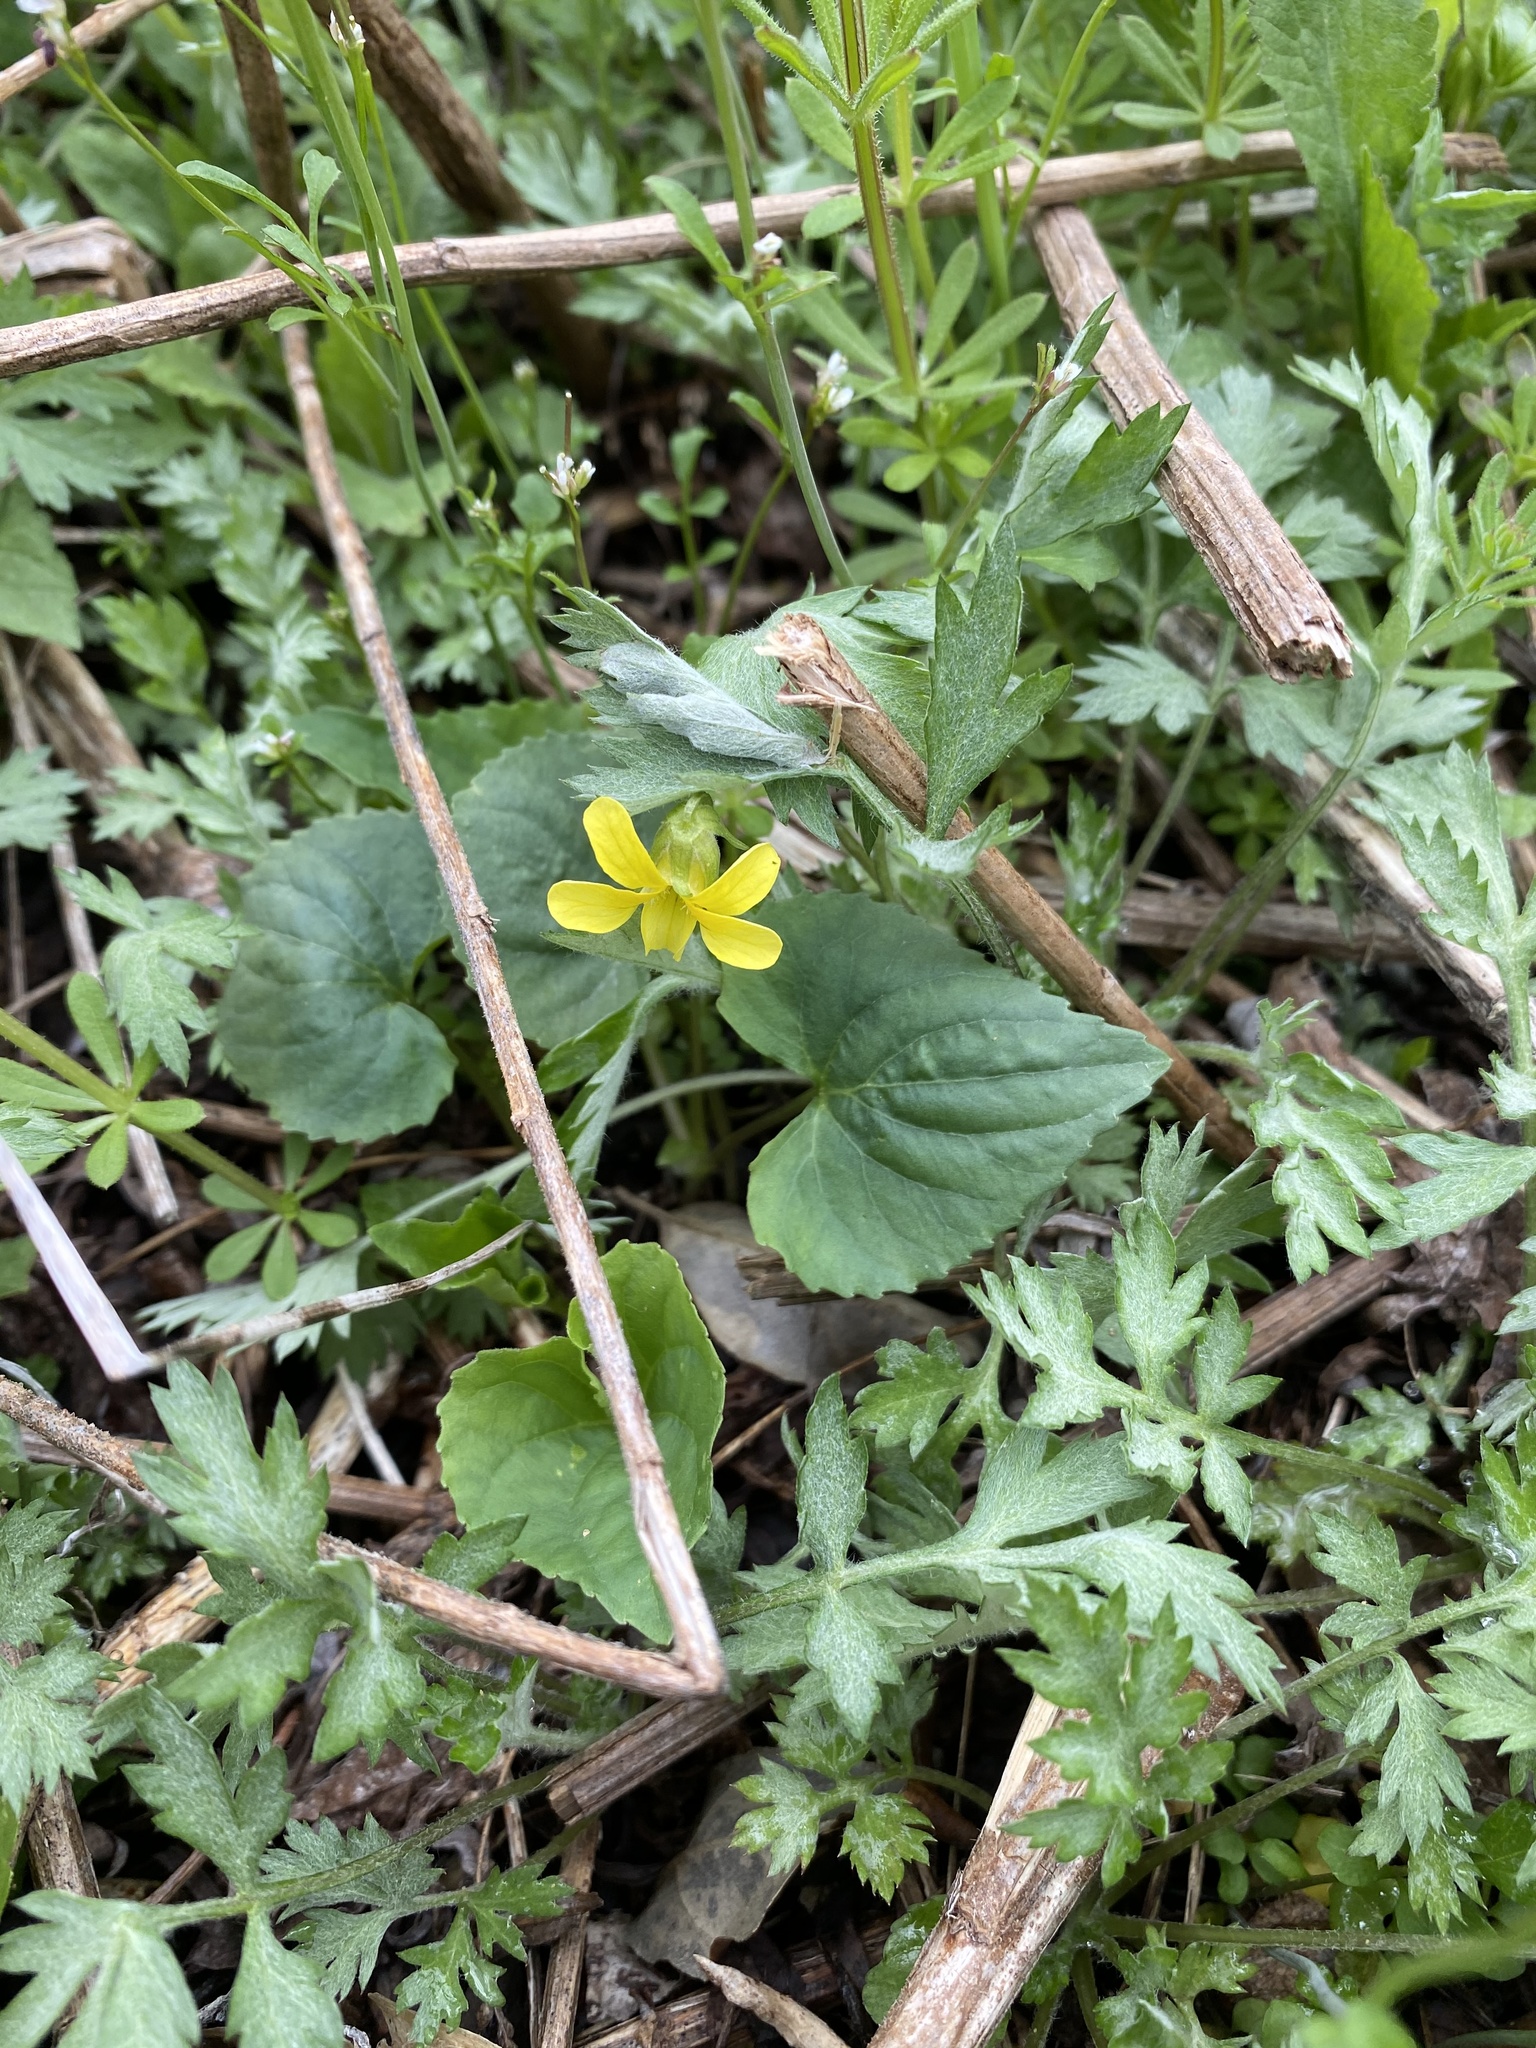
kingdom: Plantae
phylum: Tracheophyta
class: Magnoliopsida
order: Malpighiales
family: Violaceae
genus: Viola
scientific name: Viola eriocarpa
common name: Smooth yellow violet
